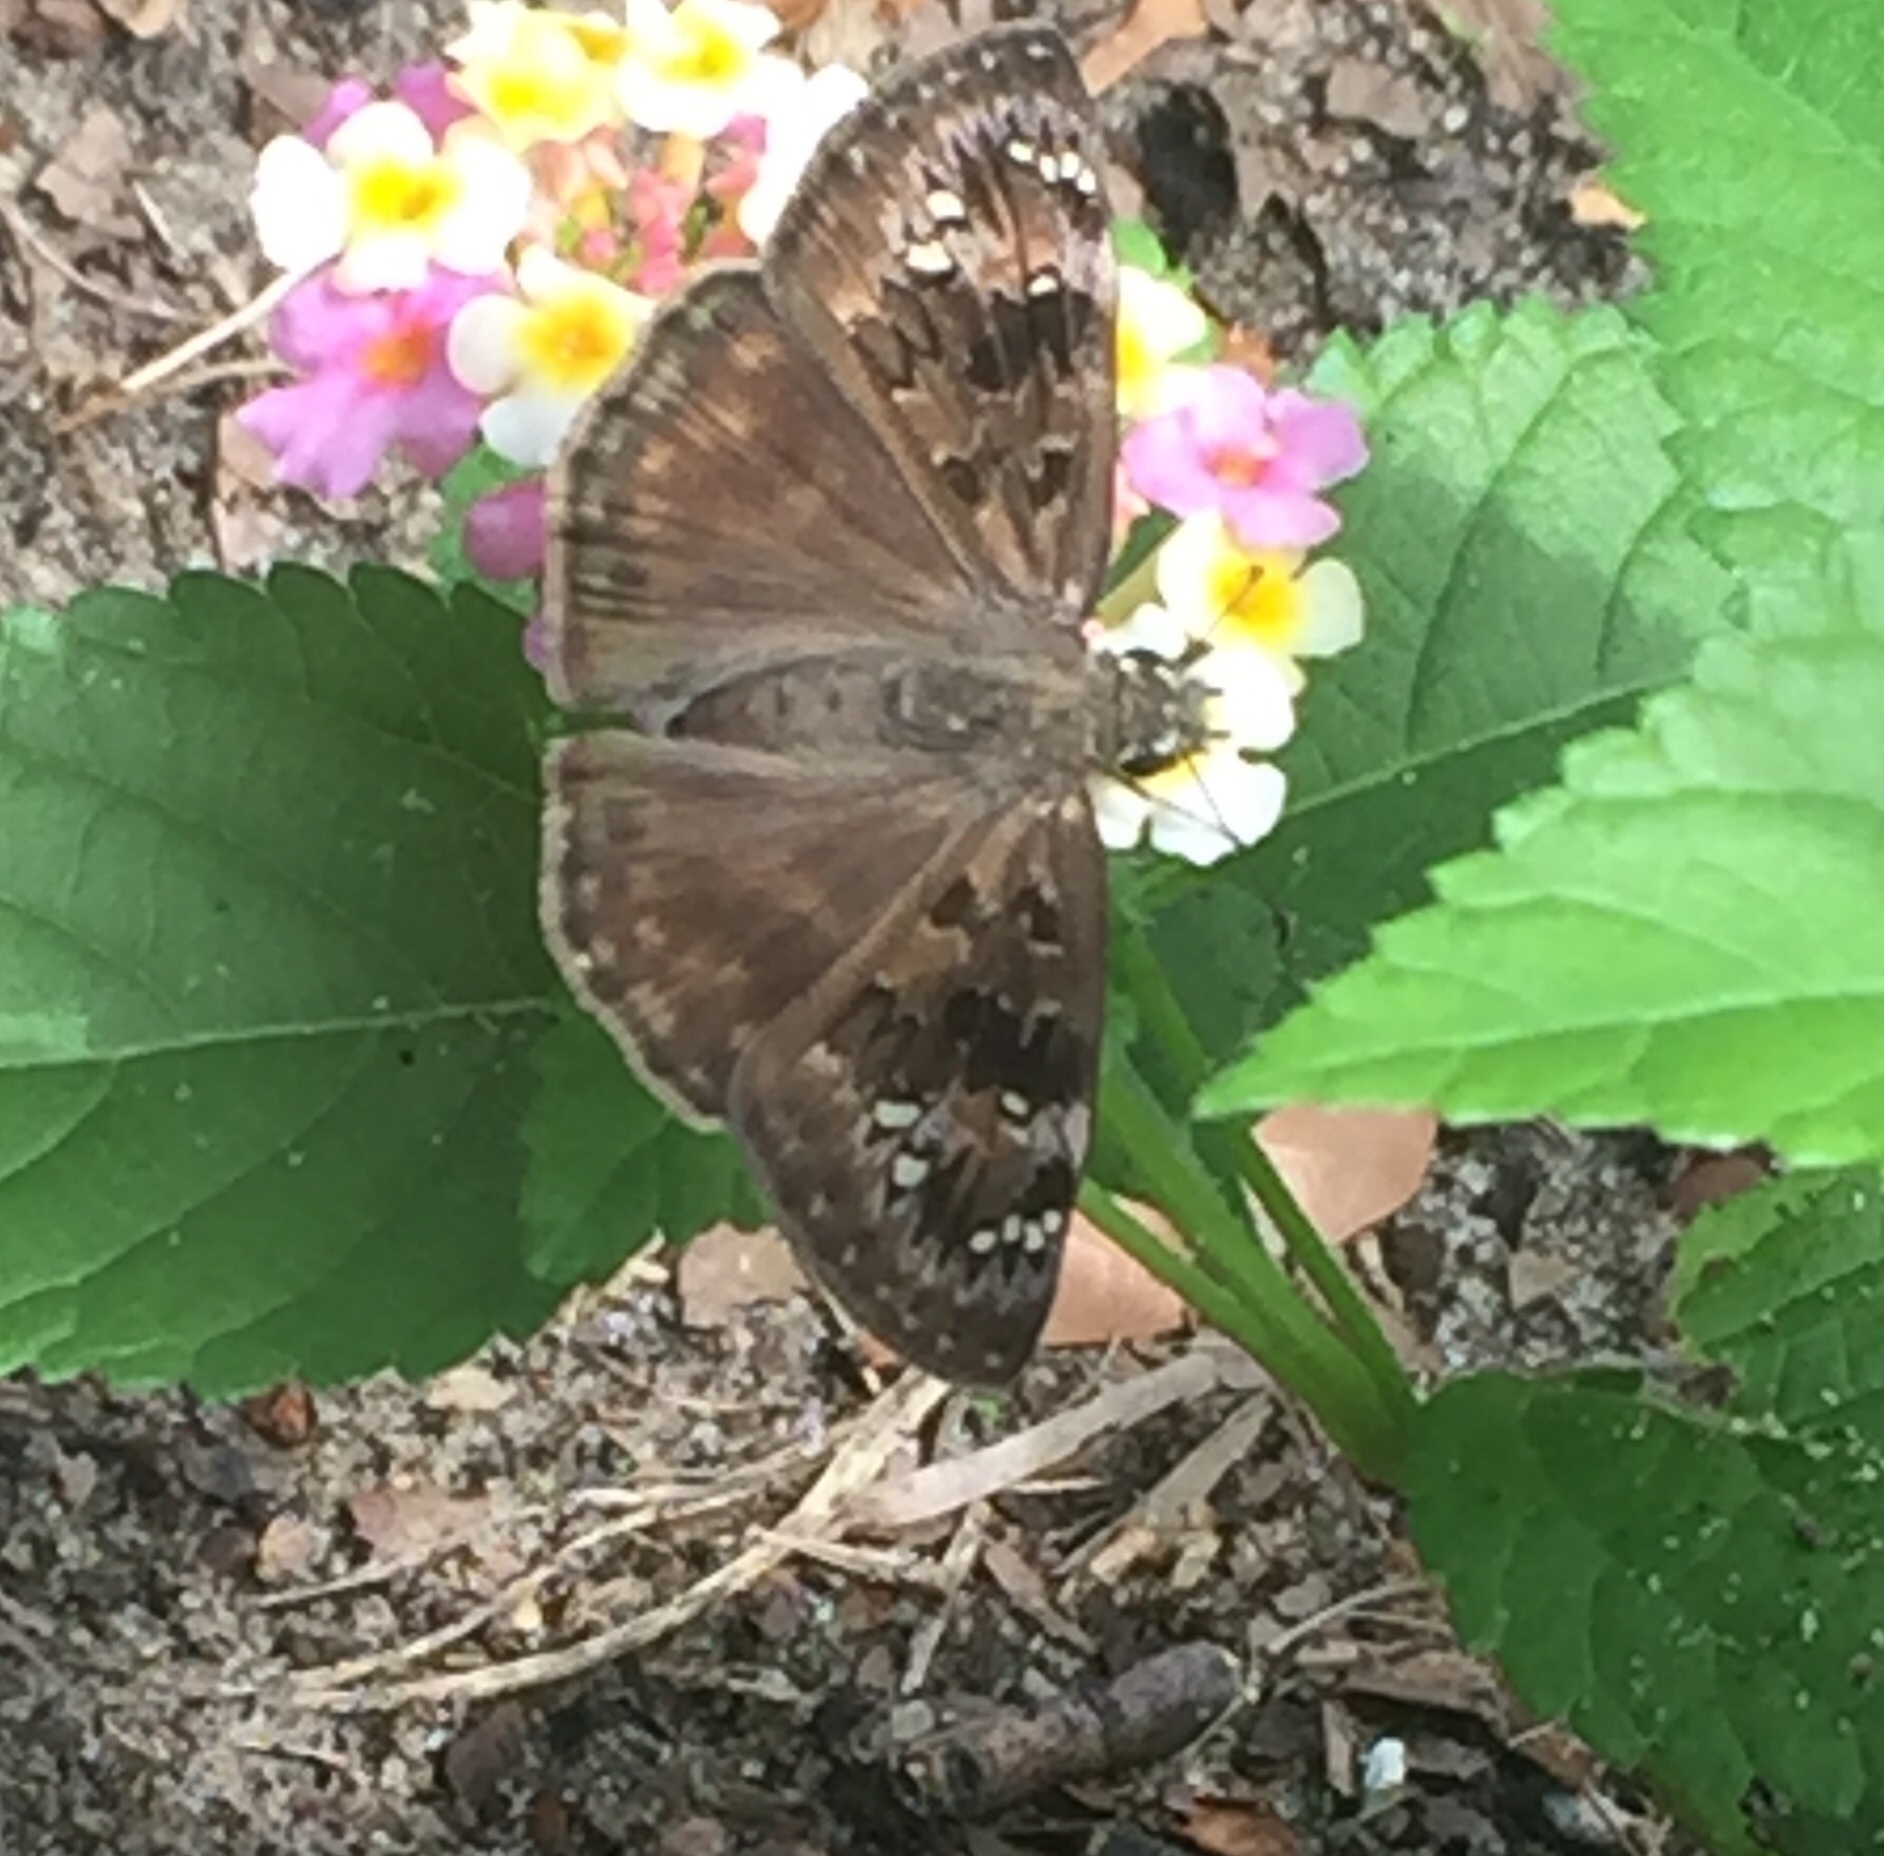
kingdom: Animalia
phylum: Arthropoda
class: Insecta
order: Lepidoptera
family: Hesperiidae
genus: Erynnis
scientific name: Erynnis horatius
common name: Horace's duskywing
